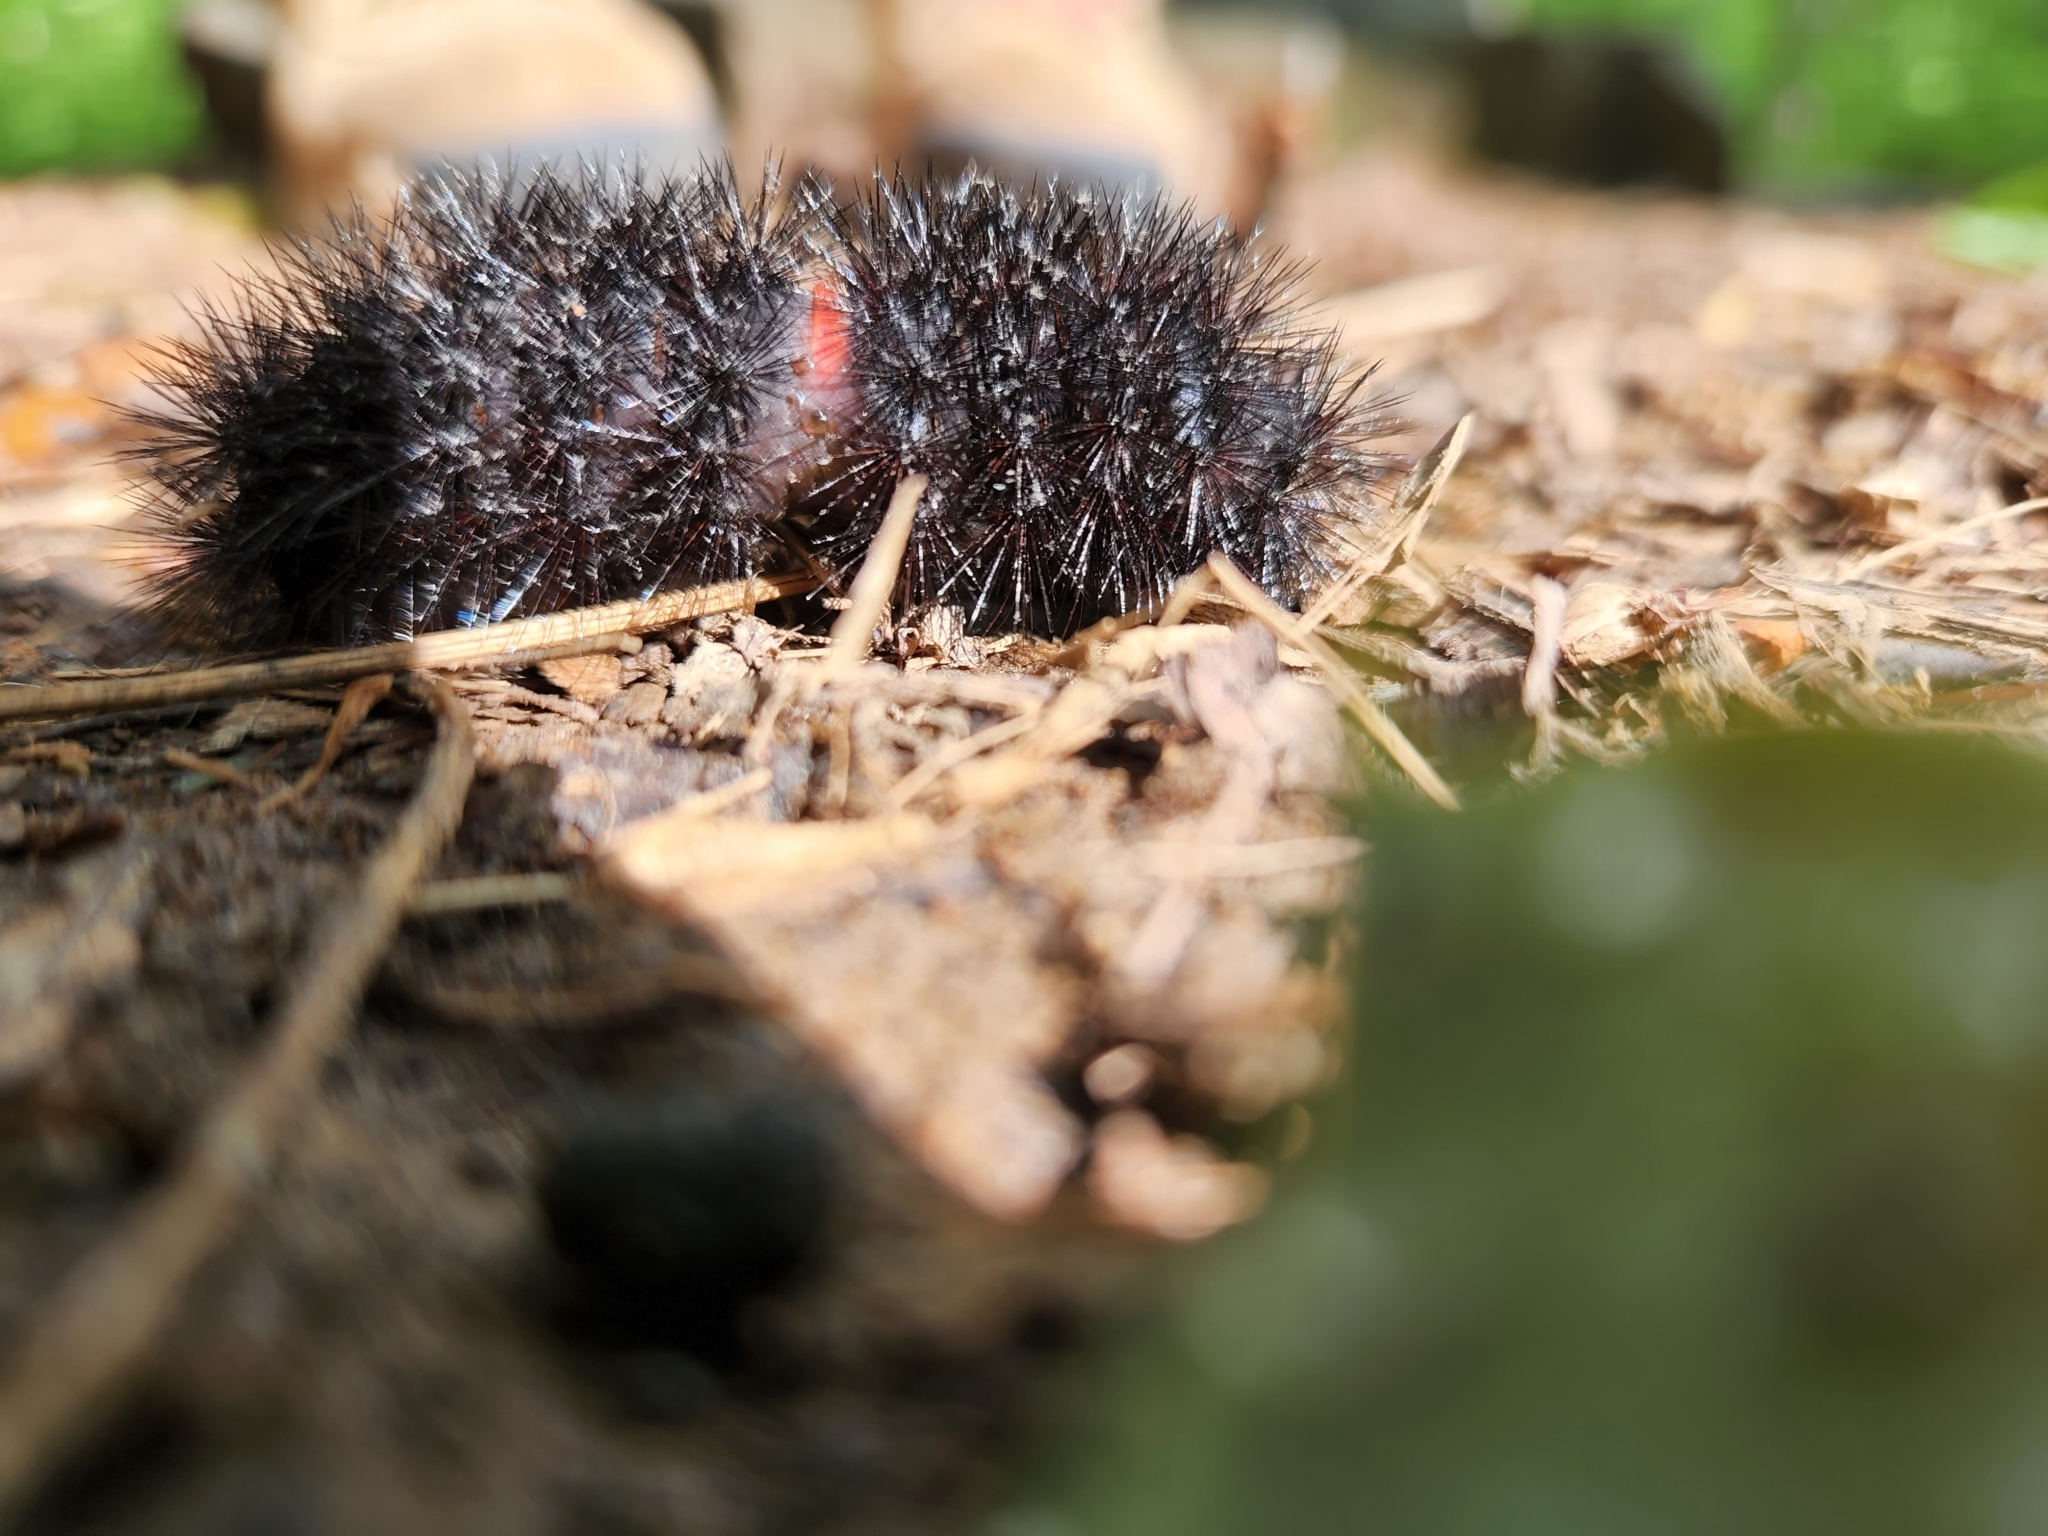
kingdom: Animalia
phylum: Arthropoda
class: Insecta
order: Lepidoptera
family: Erebidae
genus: Hypercompe
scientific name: Hypercompe scribonia
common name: Giant leopard moth
